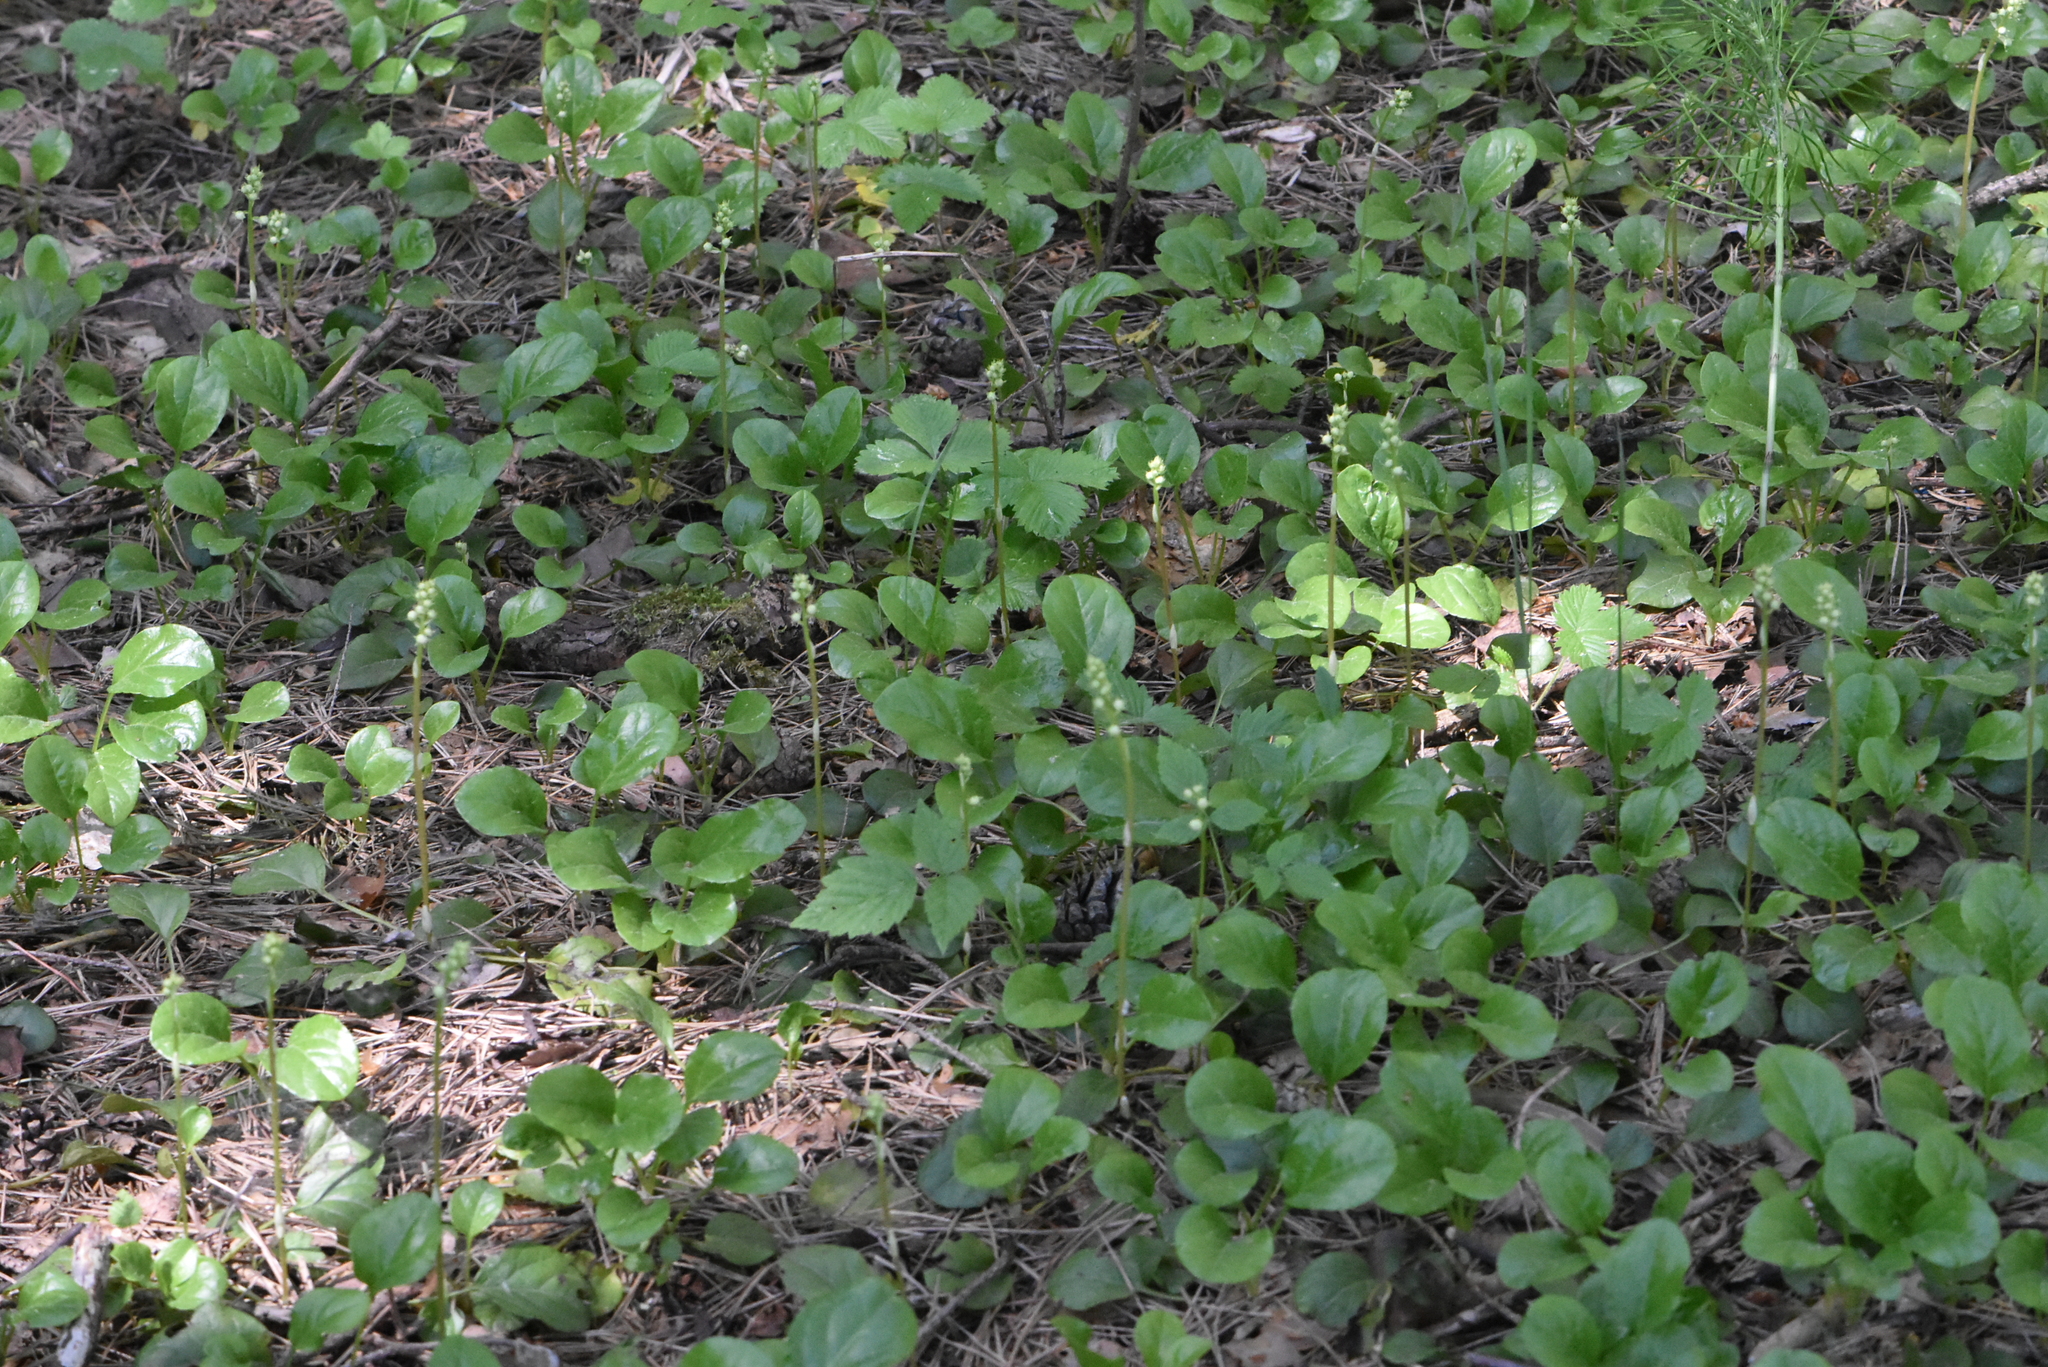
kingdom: Plantae
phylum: Tracheophyta
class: Magnoliopsida
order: Ericales
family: Ericaceae
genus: Pyrola
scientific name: Pyrola rotundifolia
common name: Round-leaved wintergreen
